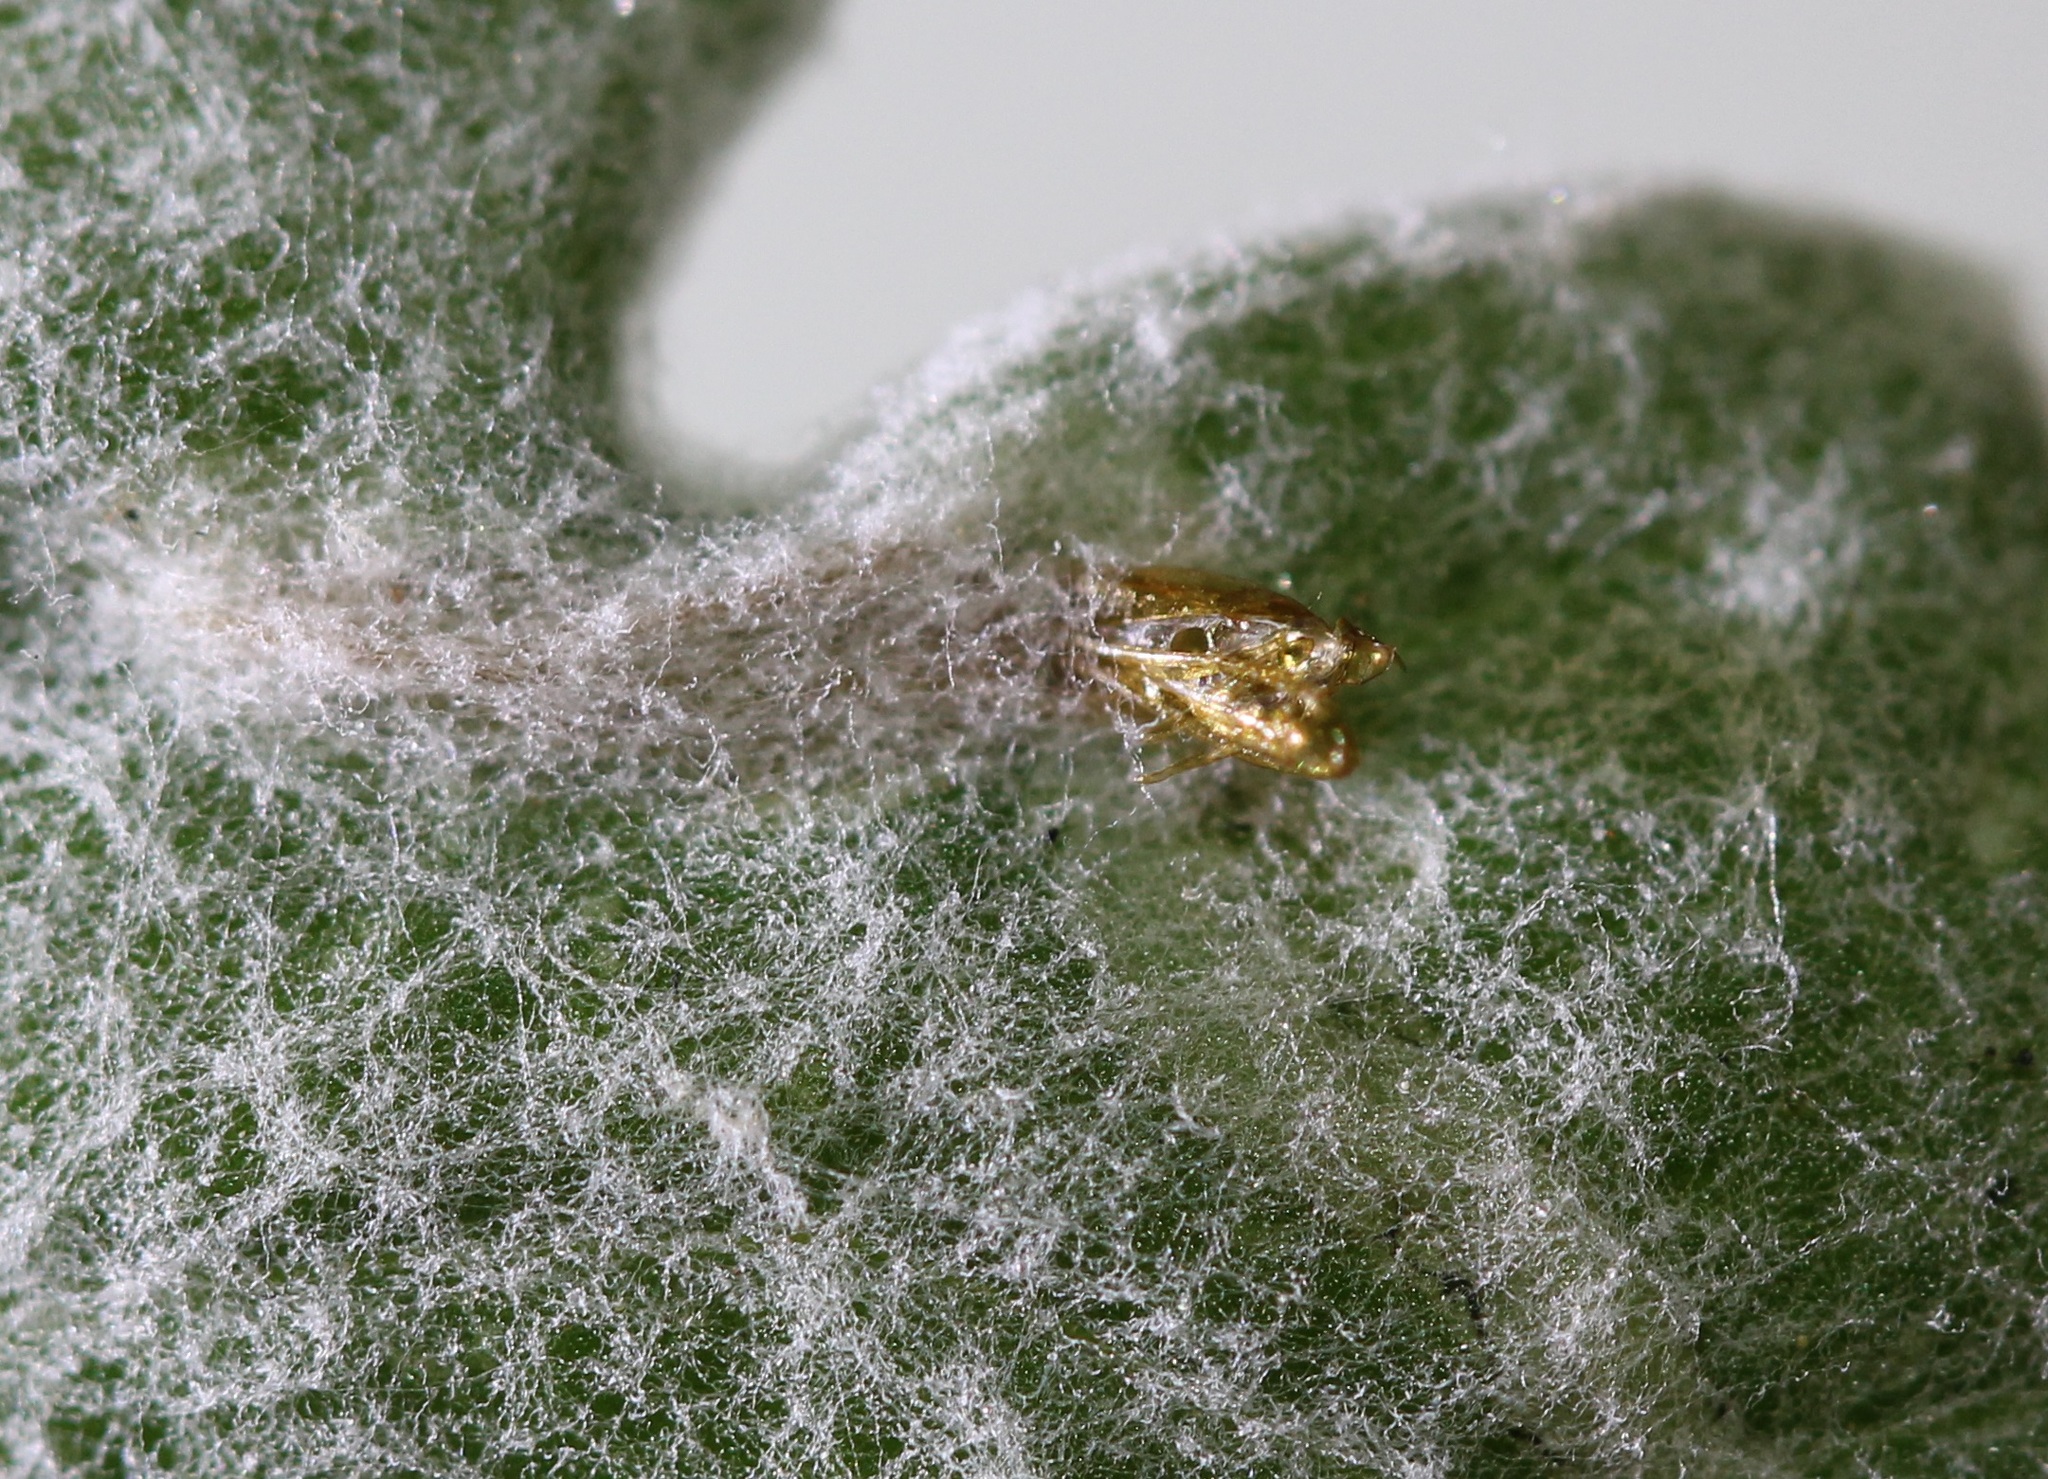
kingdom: Animalia
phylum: Arthropoda
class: Insecta
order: Lepidoptera
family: Gracillariidae
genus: Phyllocnistis
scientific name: Phyllocnistis insignis
